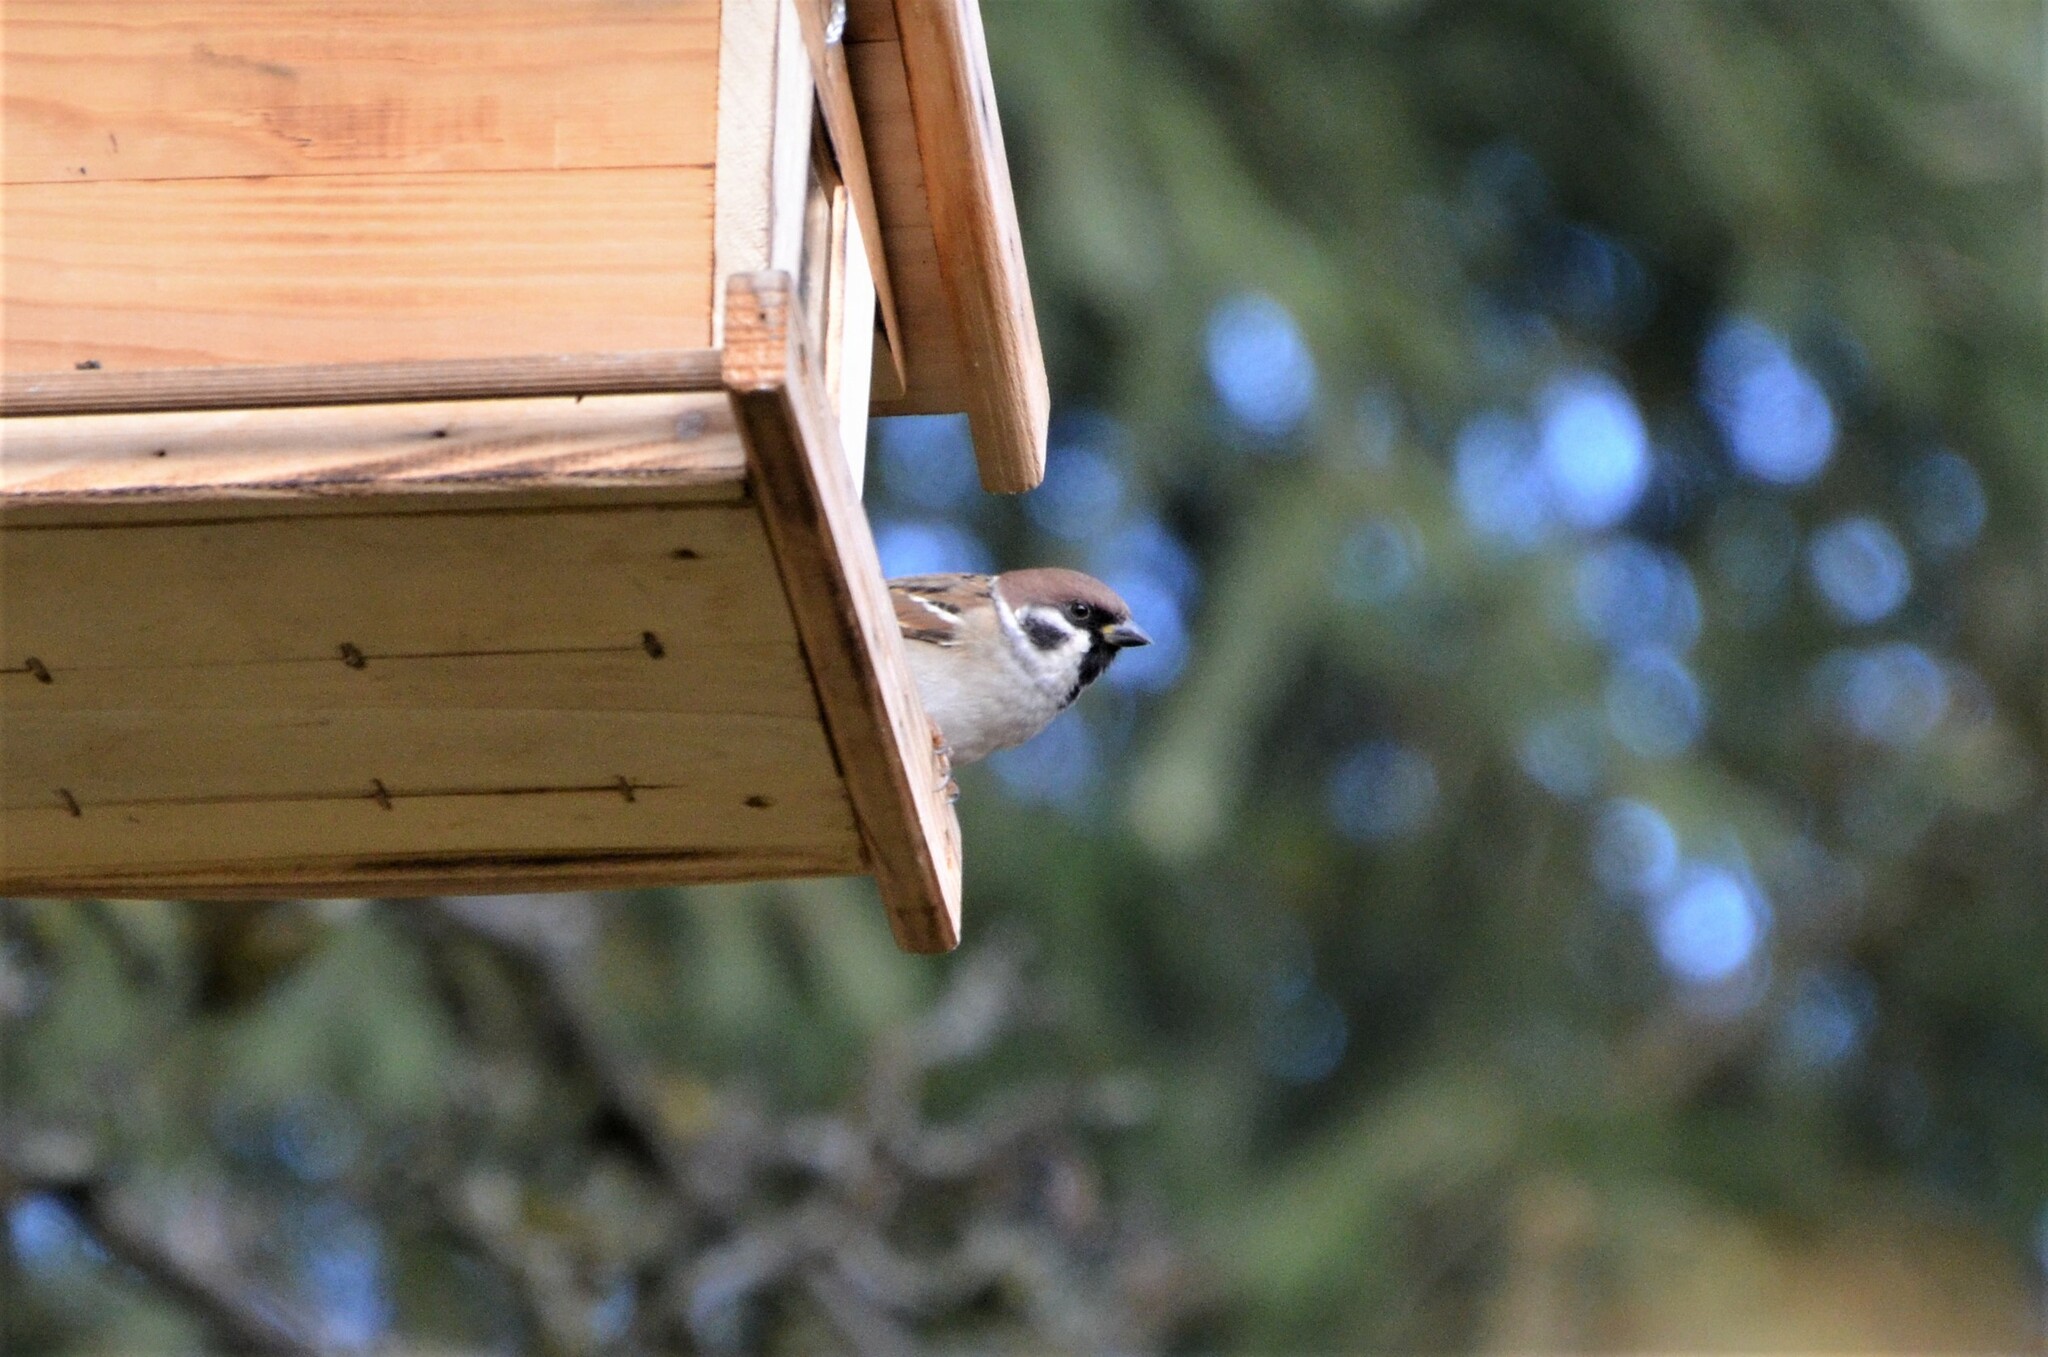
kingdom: Animalia
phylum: Chordata
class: Aves
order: Passeriformes
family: Passeridae
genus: Passer
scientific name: Passer montanus
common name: Eurasian tree sparrow
